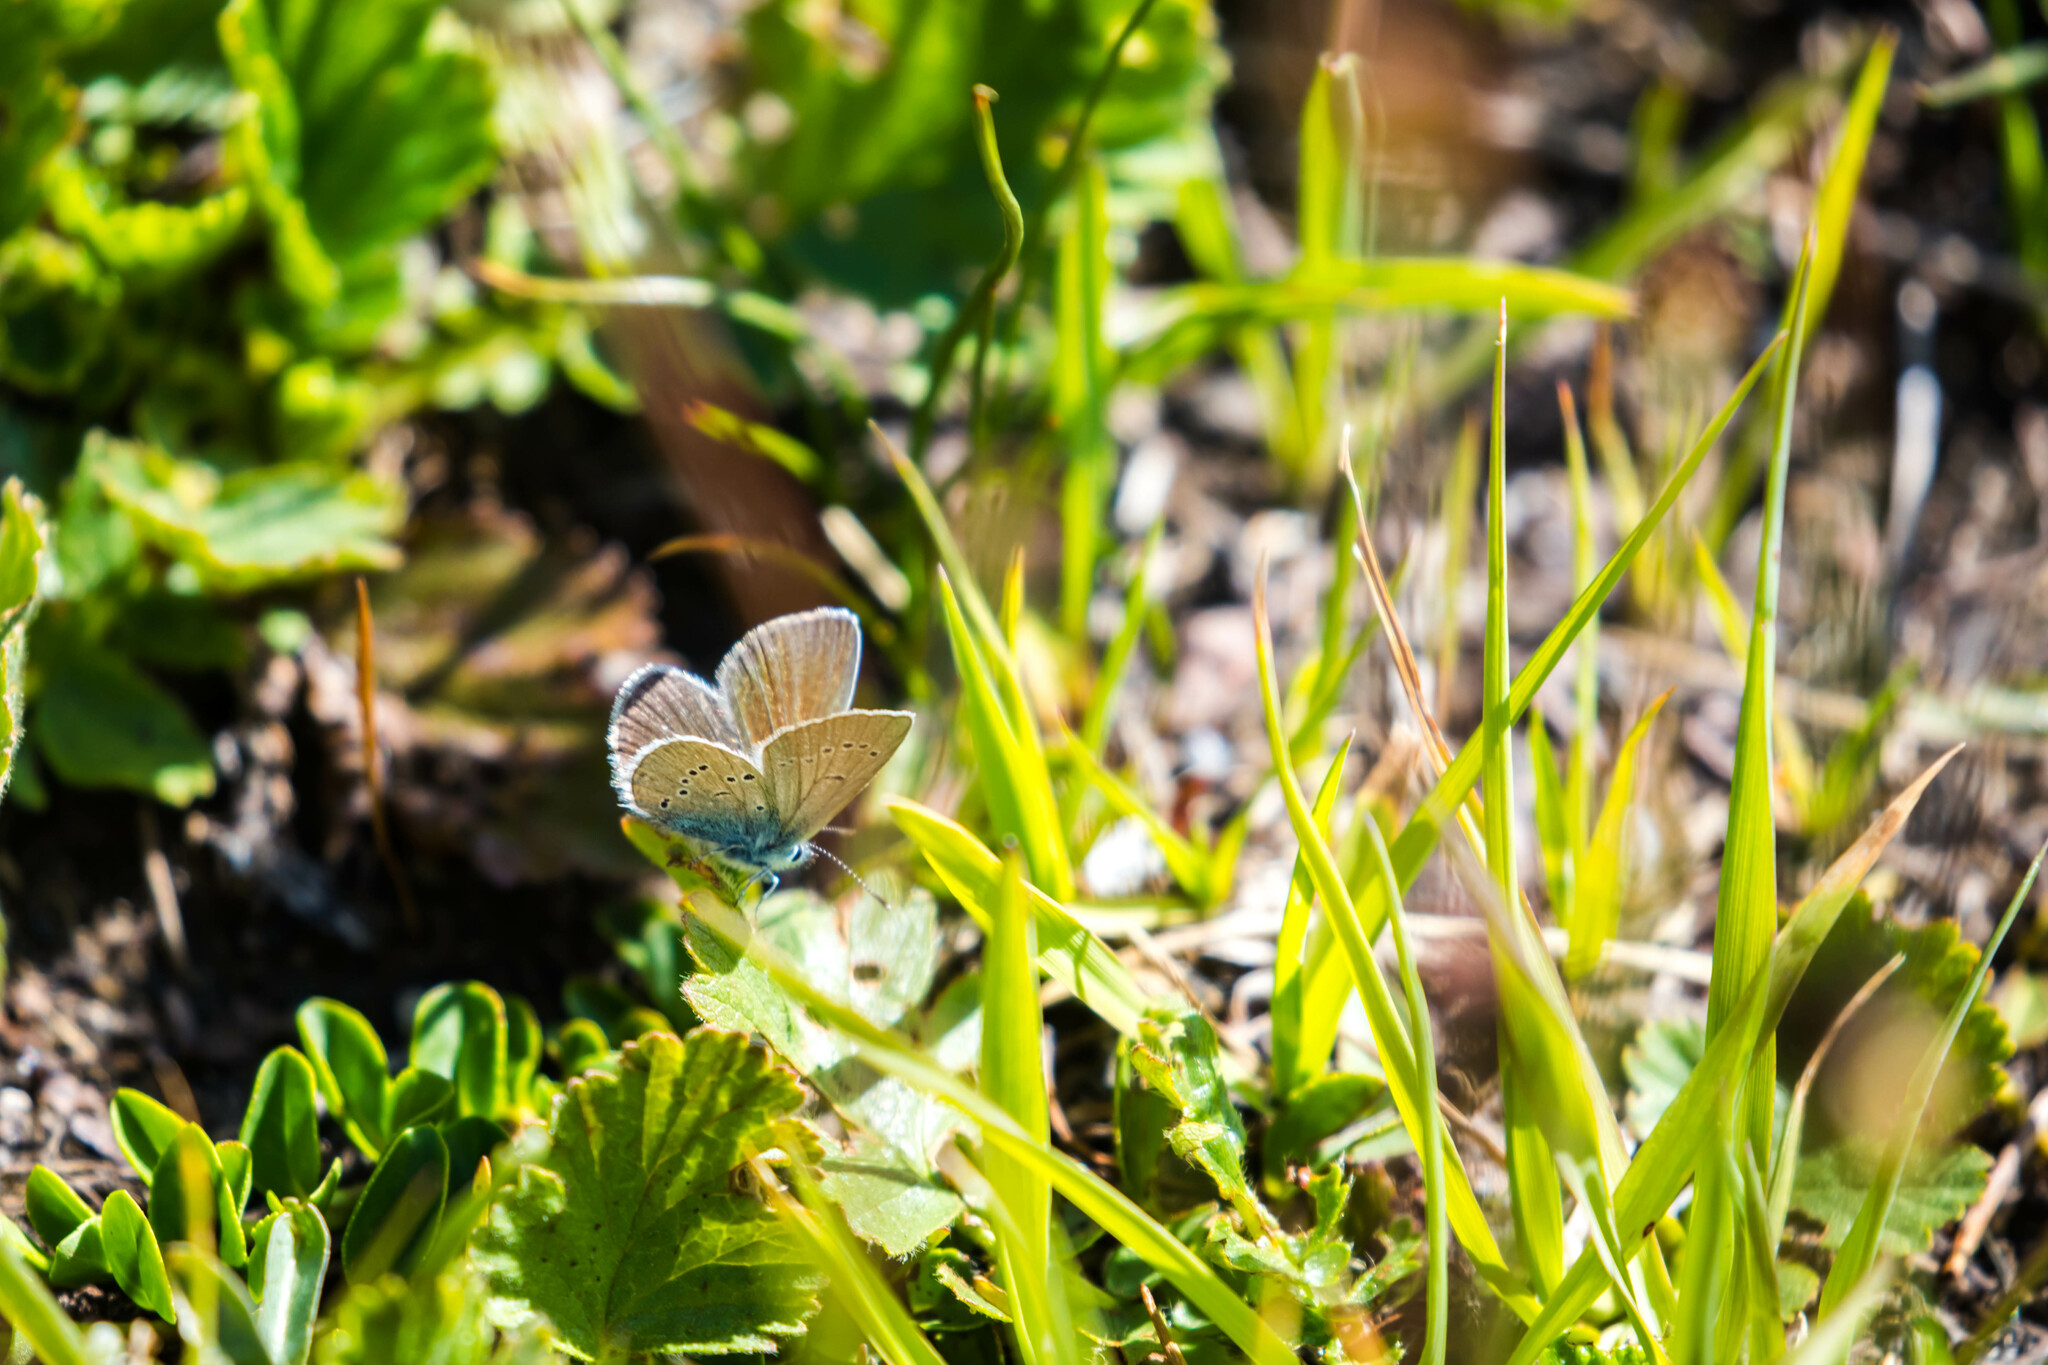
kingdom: Animalia
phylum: Arthropoda
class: Insecta
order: Lepidoptera
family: Lycaenidae
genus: Cyaniris
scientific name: Cyaniris semiargus
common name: Mazarine blue
